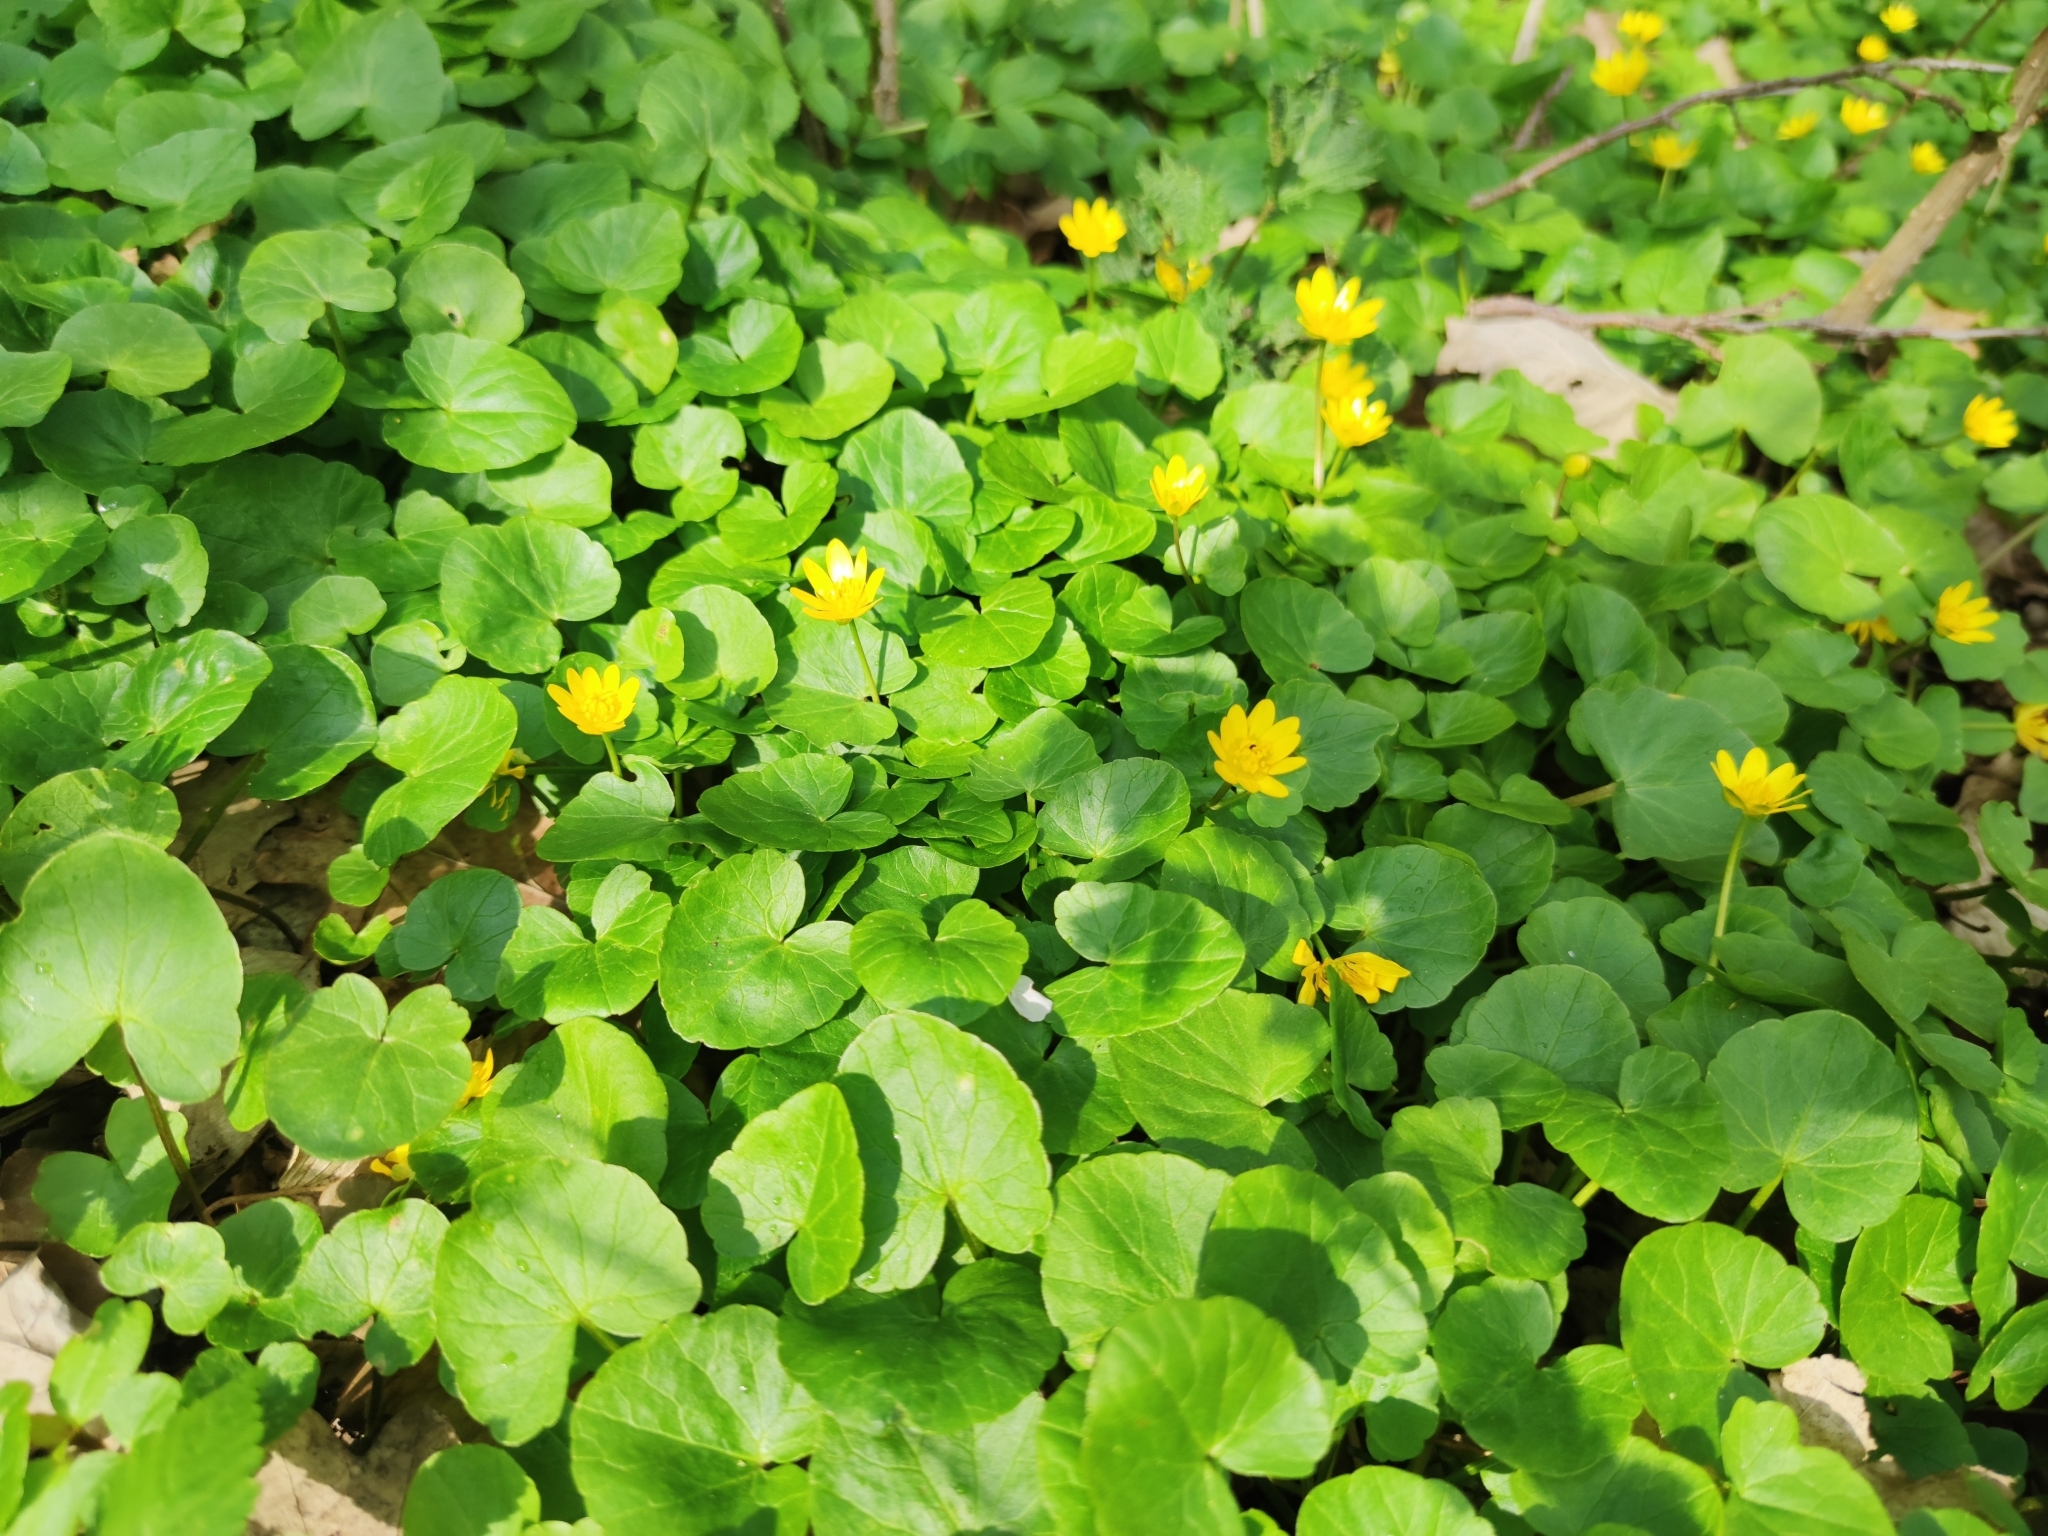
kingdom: Plantae
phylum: Tracheophyta
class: Magnoliopsida
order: Ranunculales
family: Ranunculaceae
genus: Ficaria
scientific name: Ficaria verna
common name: Lesser celandine
